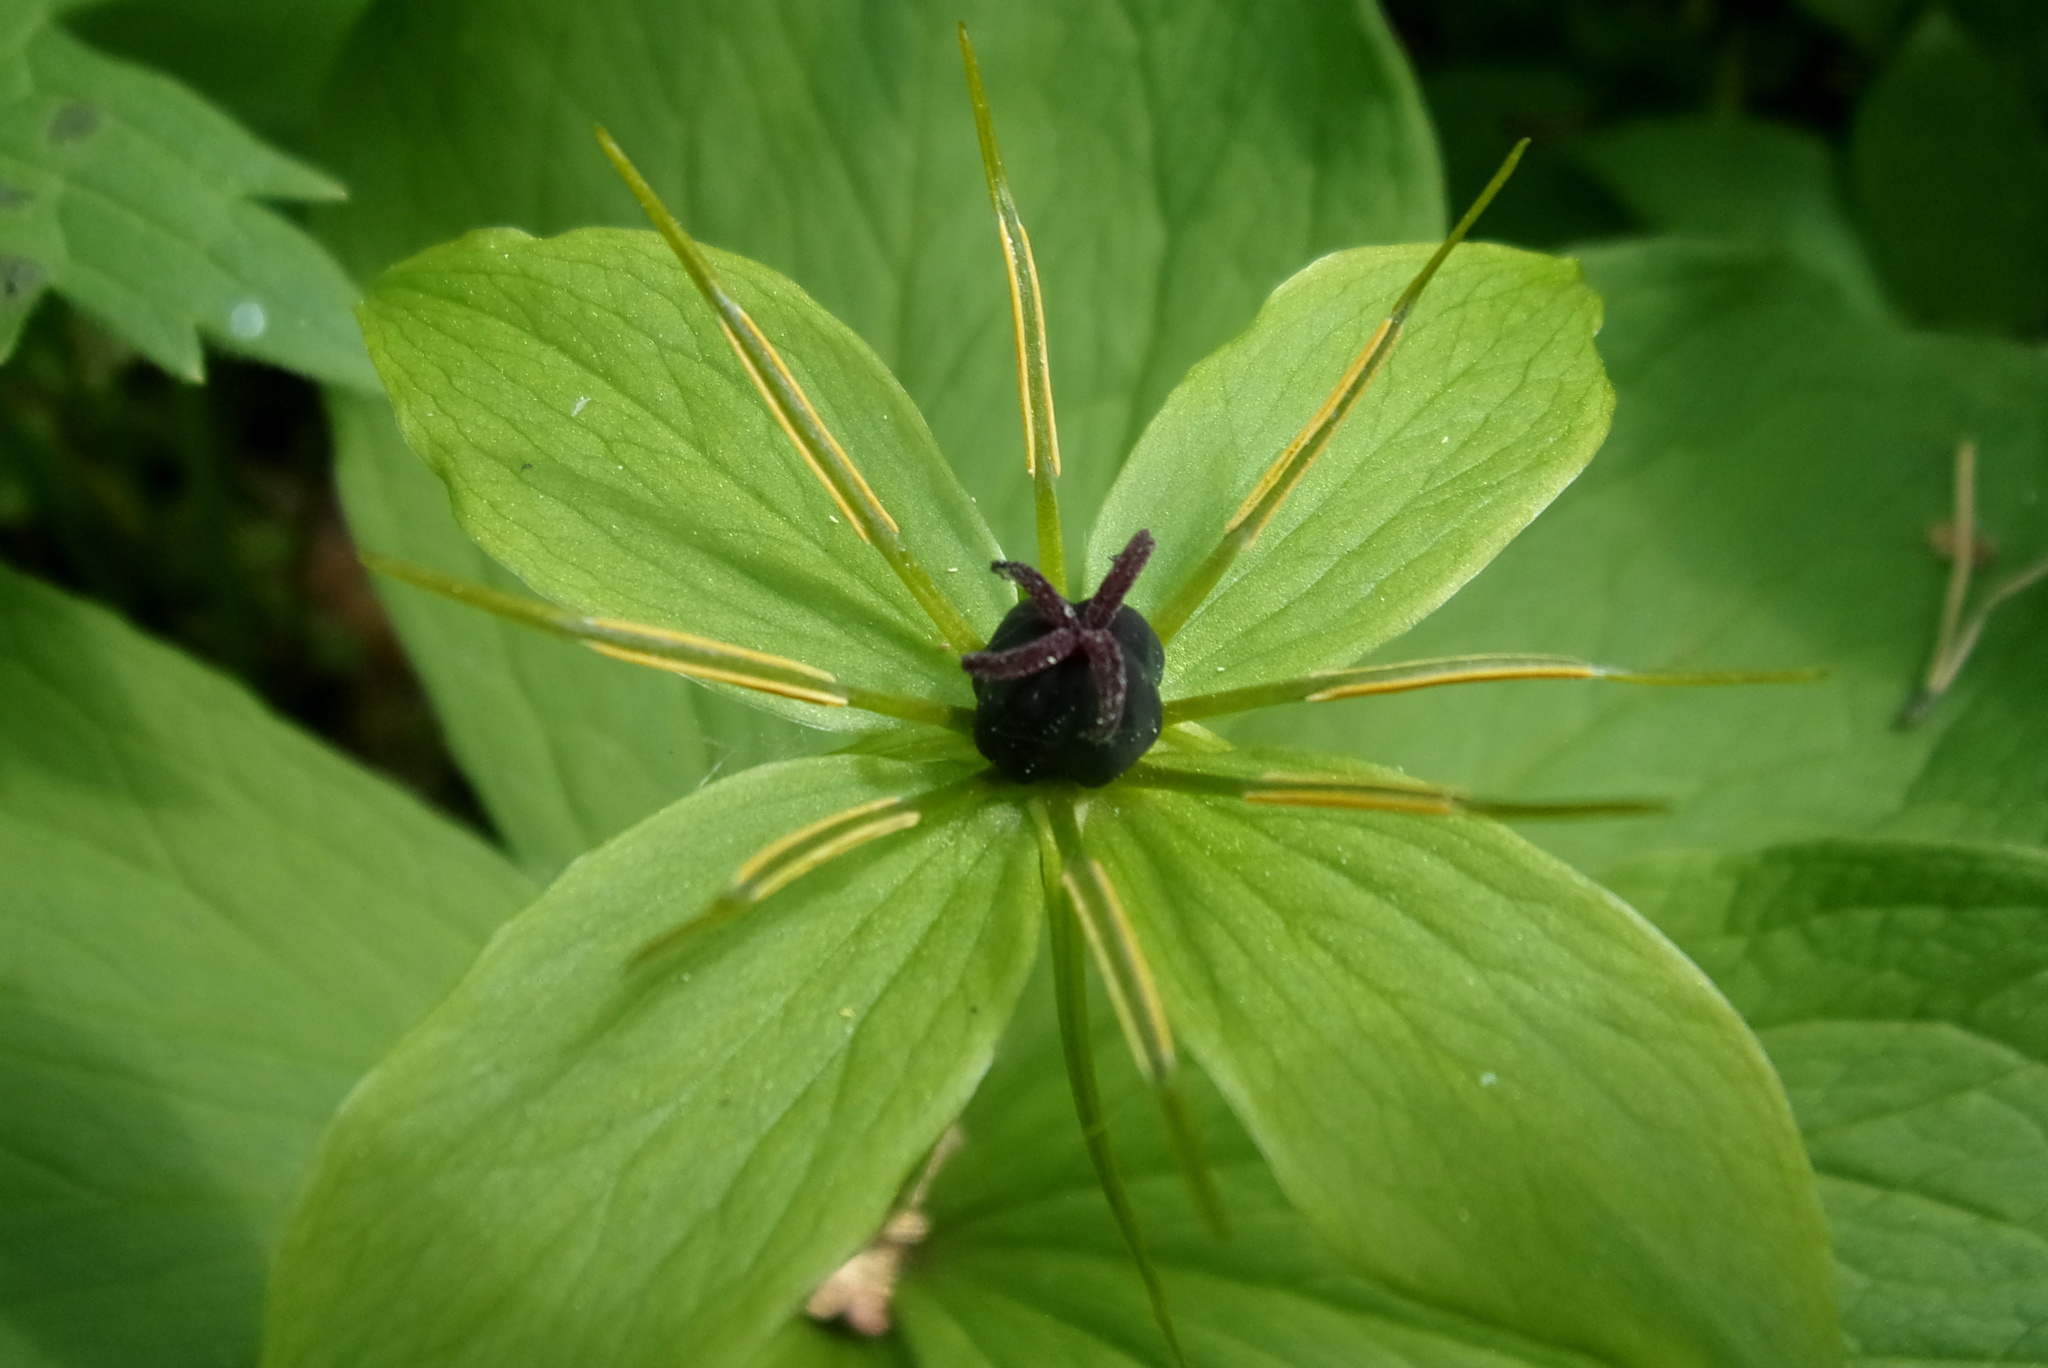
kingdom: Plantae
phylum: Tracheophyta
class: Liliopsida
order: Liliales
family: Melanthiaceae
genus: Paris
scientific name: Paris quadrifolia
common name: Herb-paris
